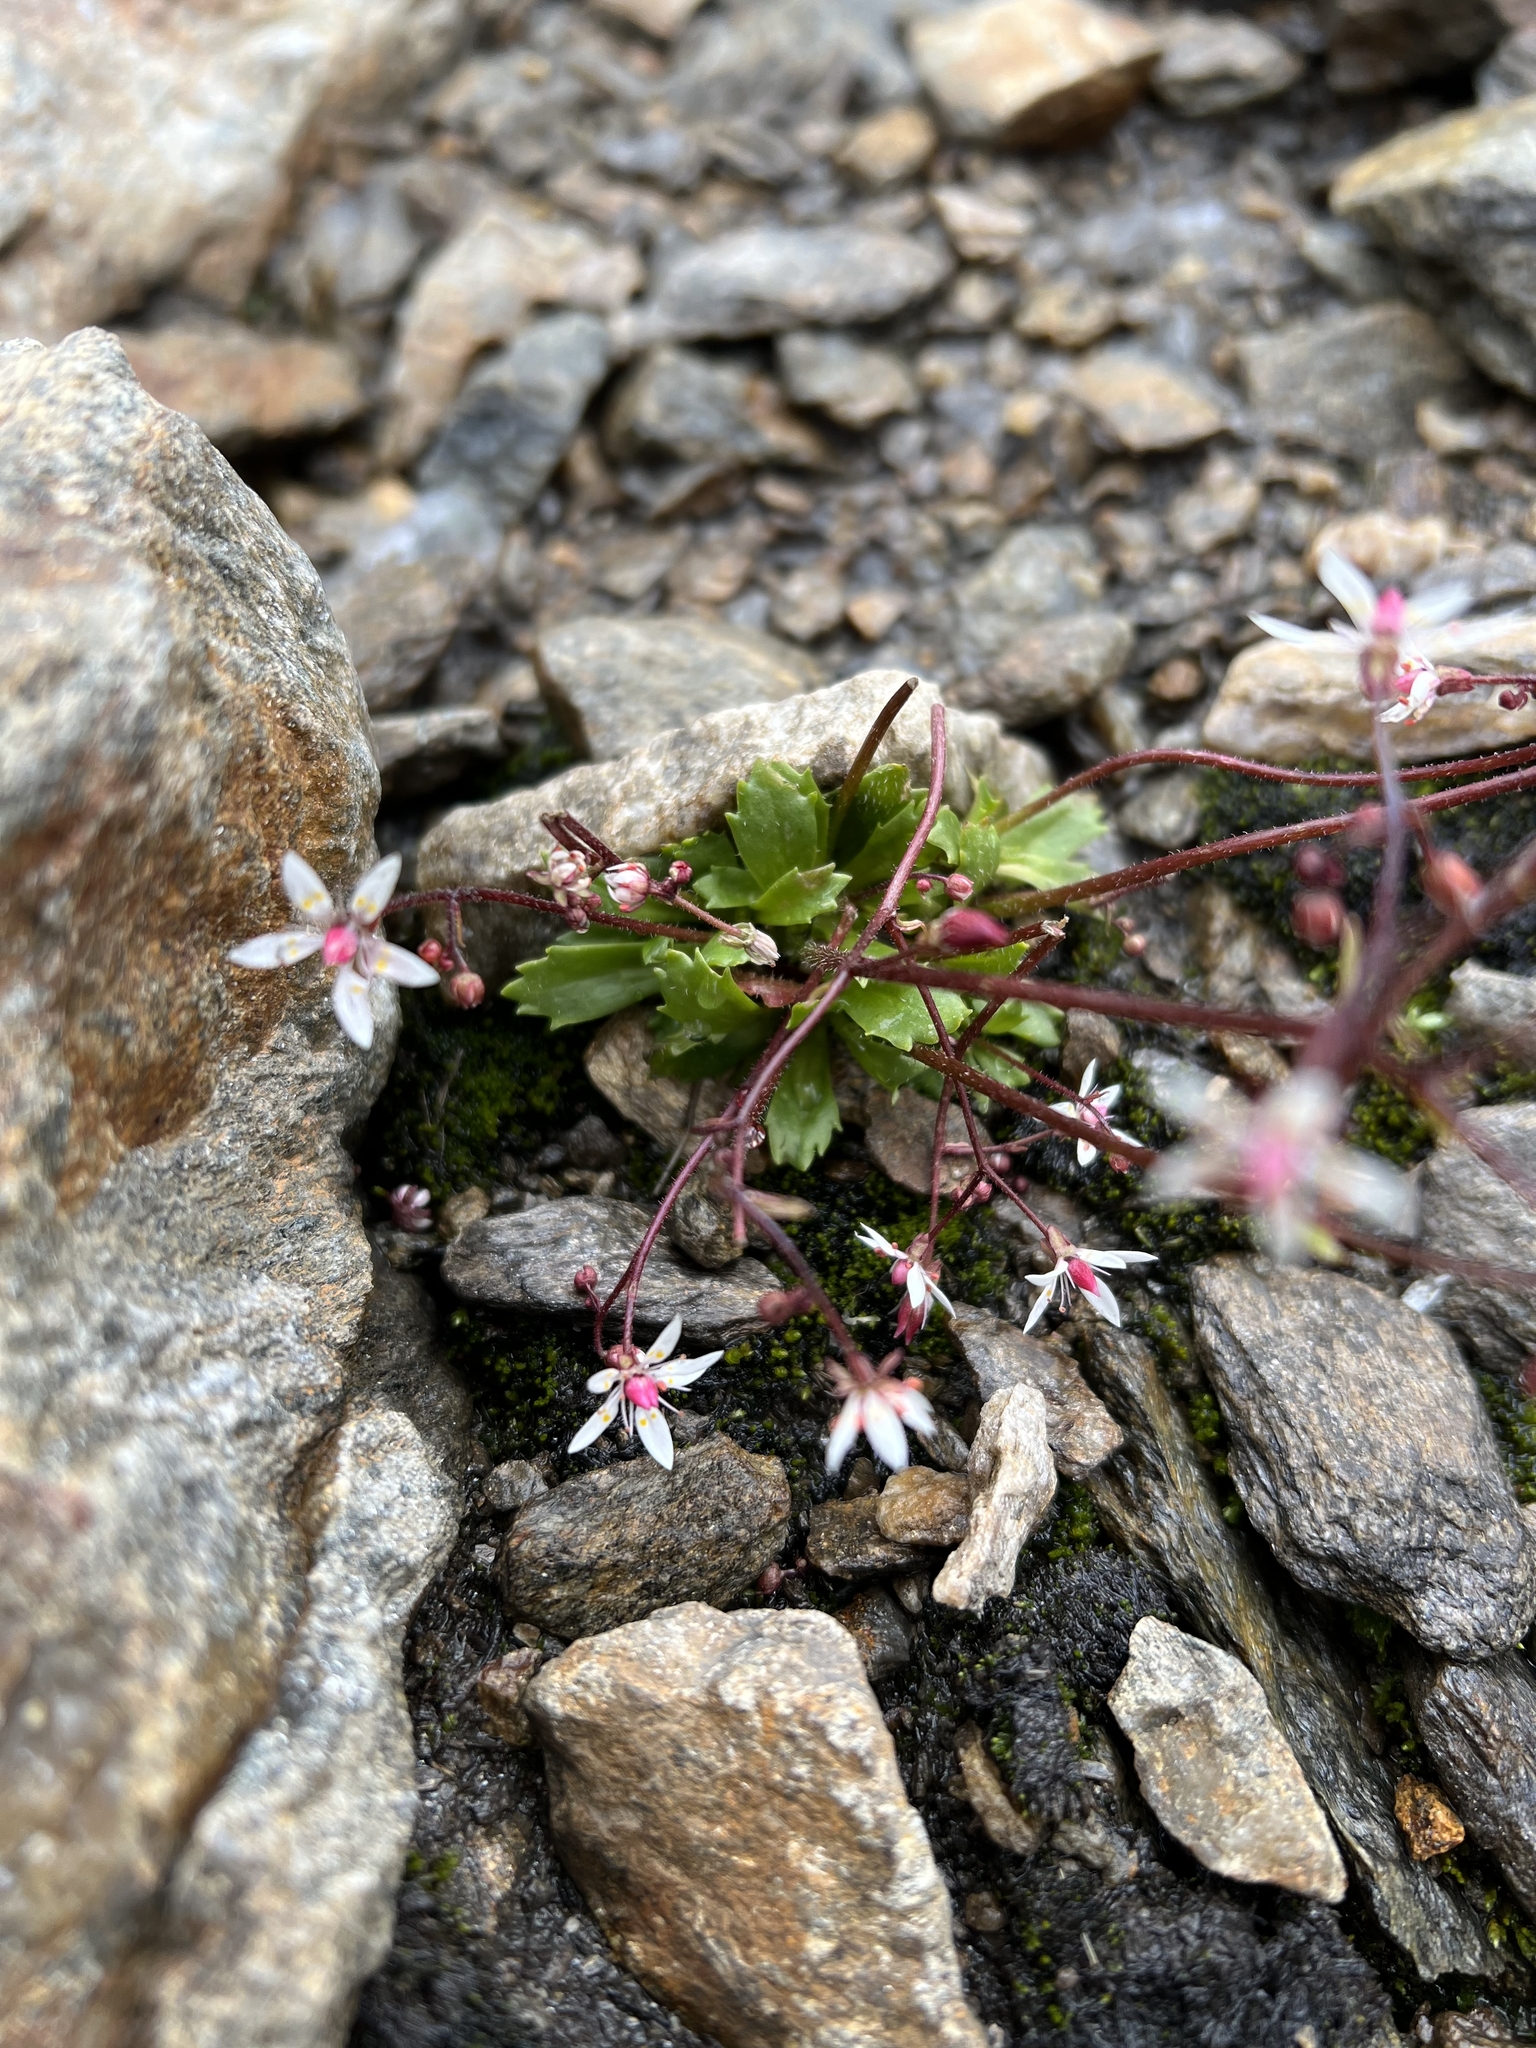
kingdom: Plantae
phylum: Tracheophyta
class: Magnoliopsida
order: Saxifragales
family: Saxifragaceae
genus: Micranthes
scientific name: Micranthes stellaris
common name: Starry saxifrage
